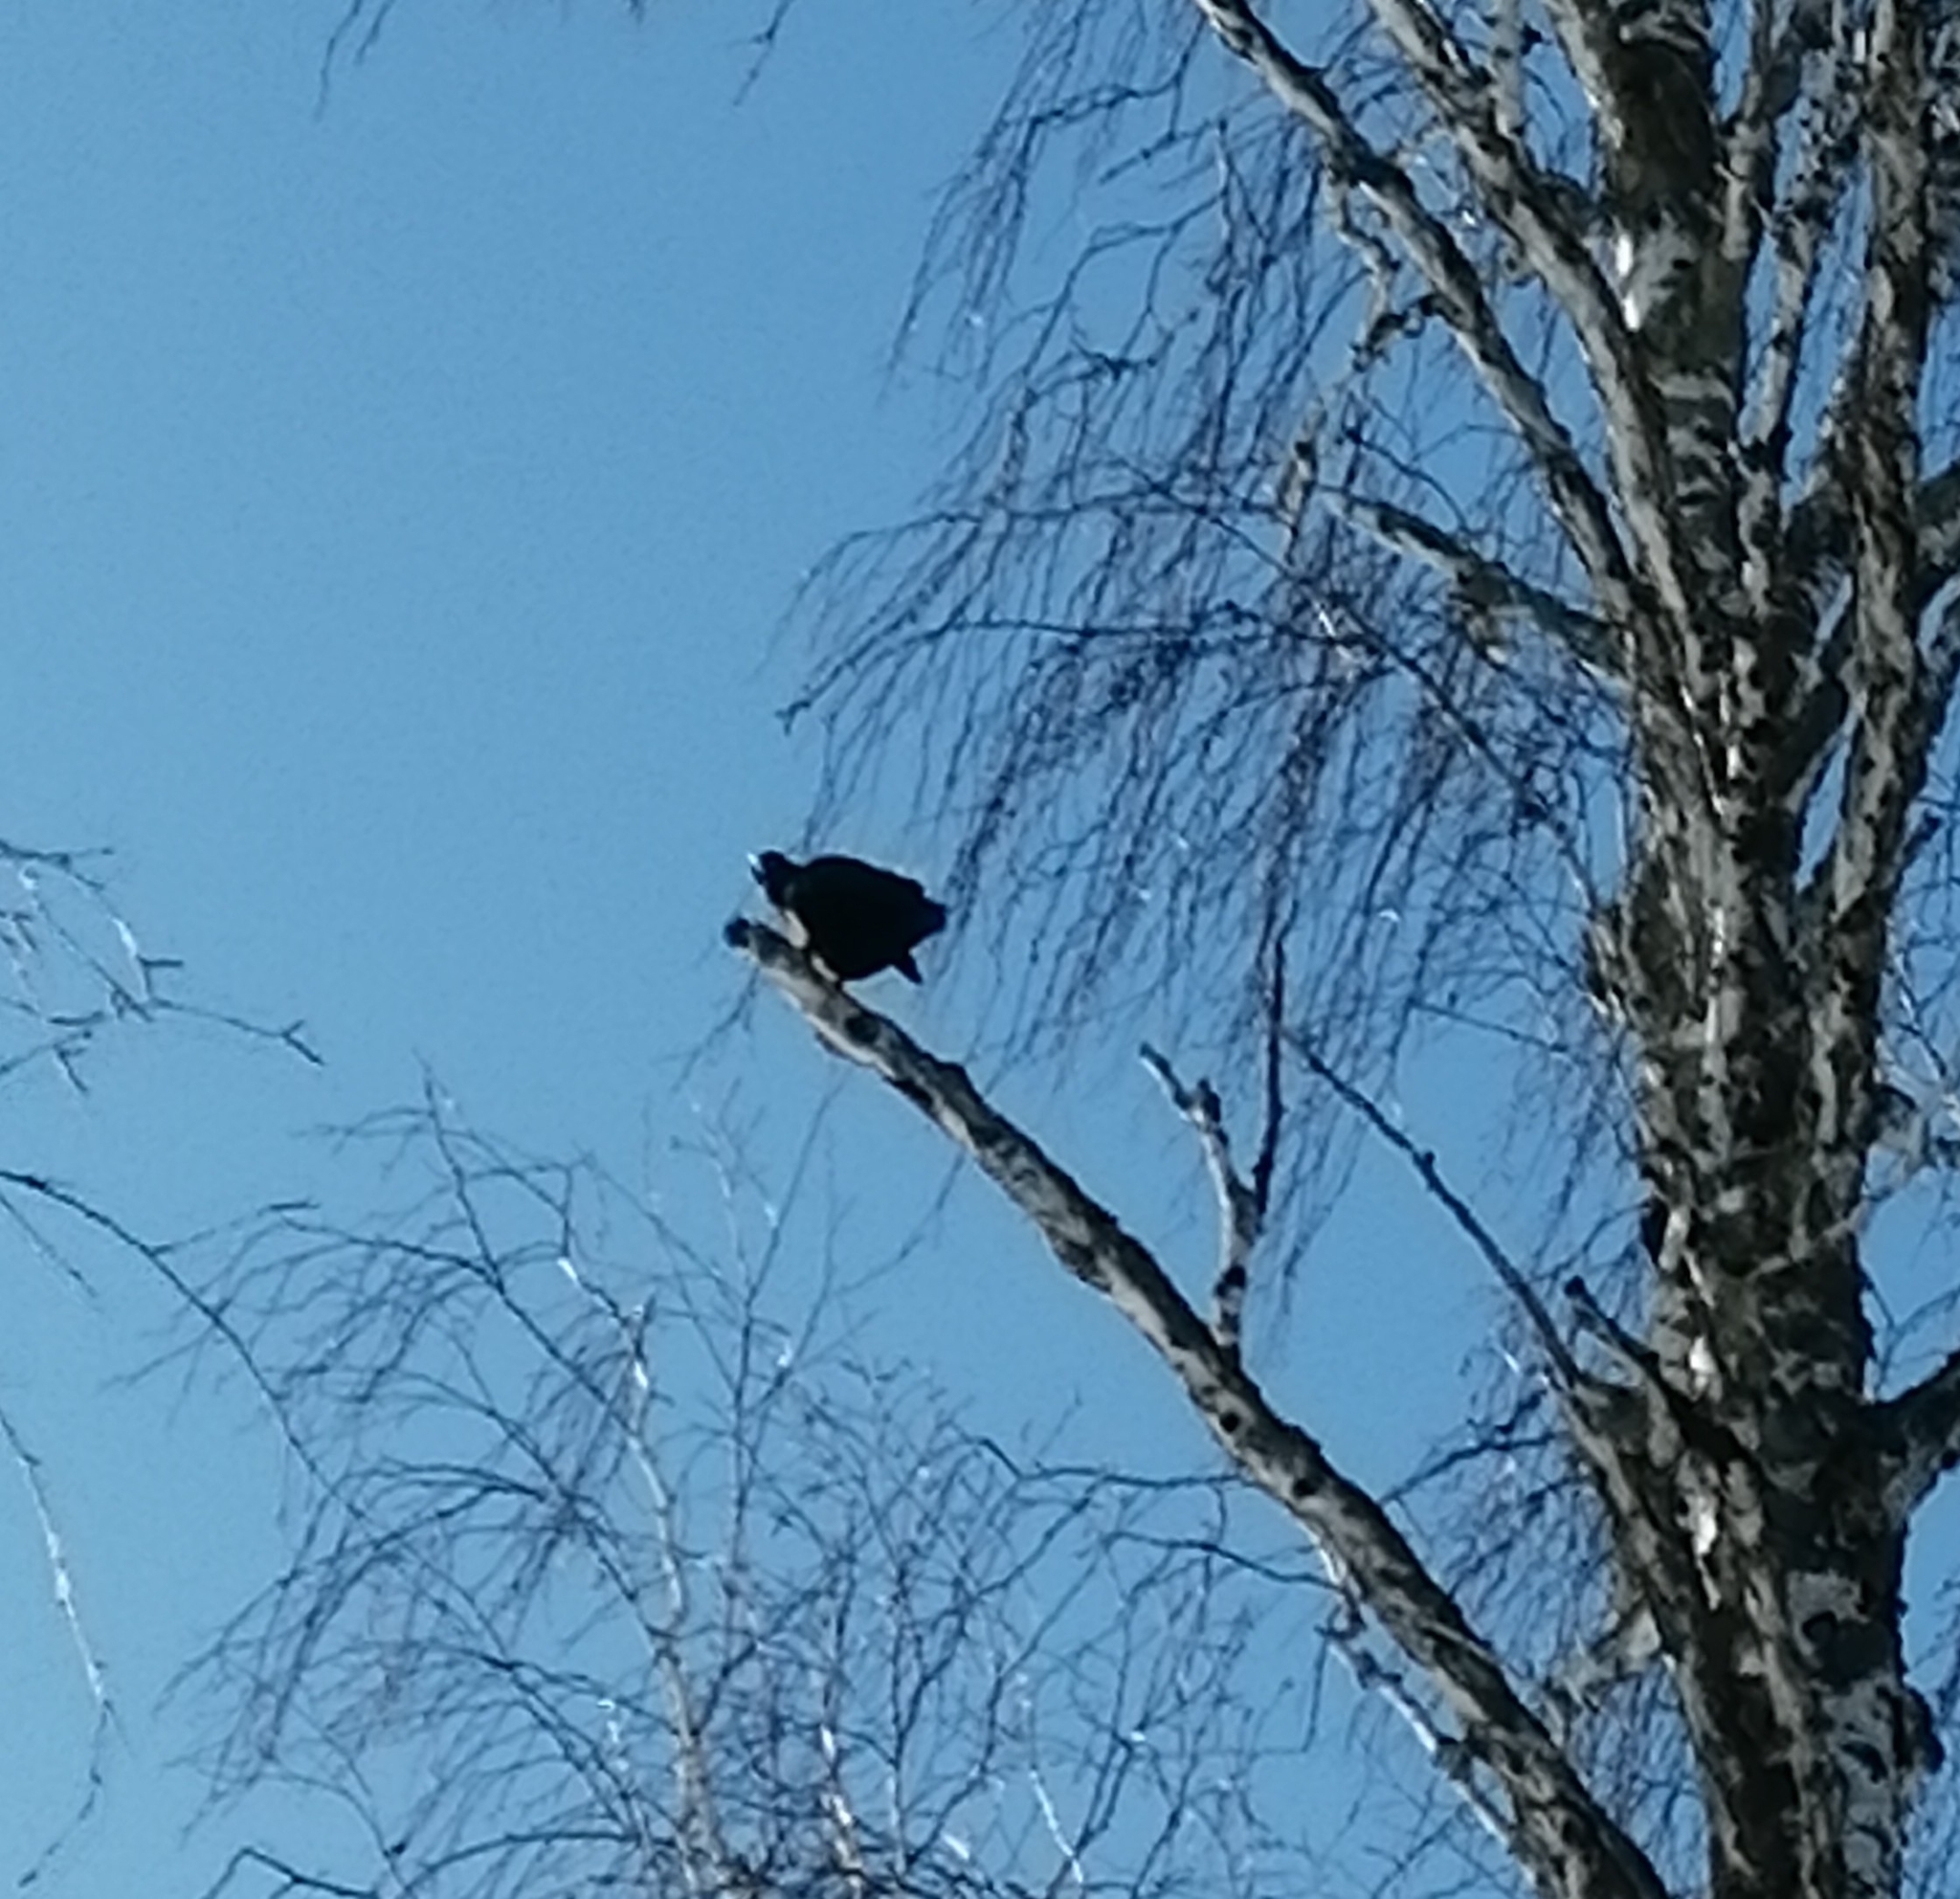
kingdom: Animalia
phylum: Chordata
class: Aves
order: Passeriformes
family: Corvidae
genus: Corvus
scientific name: Corvus corone
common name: Carrion crow
